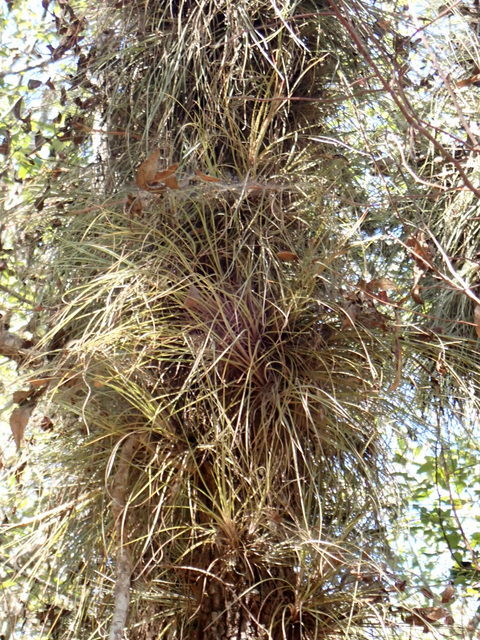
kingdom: Plantae
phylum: Tracheophyta
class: Liliopsida
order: Poales
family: Bromeliaceae
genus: Tillandsia
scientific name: Tillandsia bartramii
